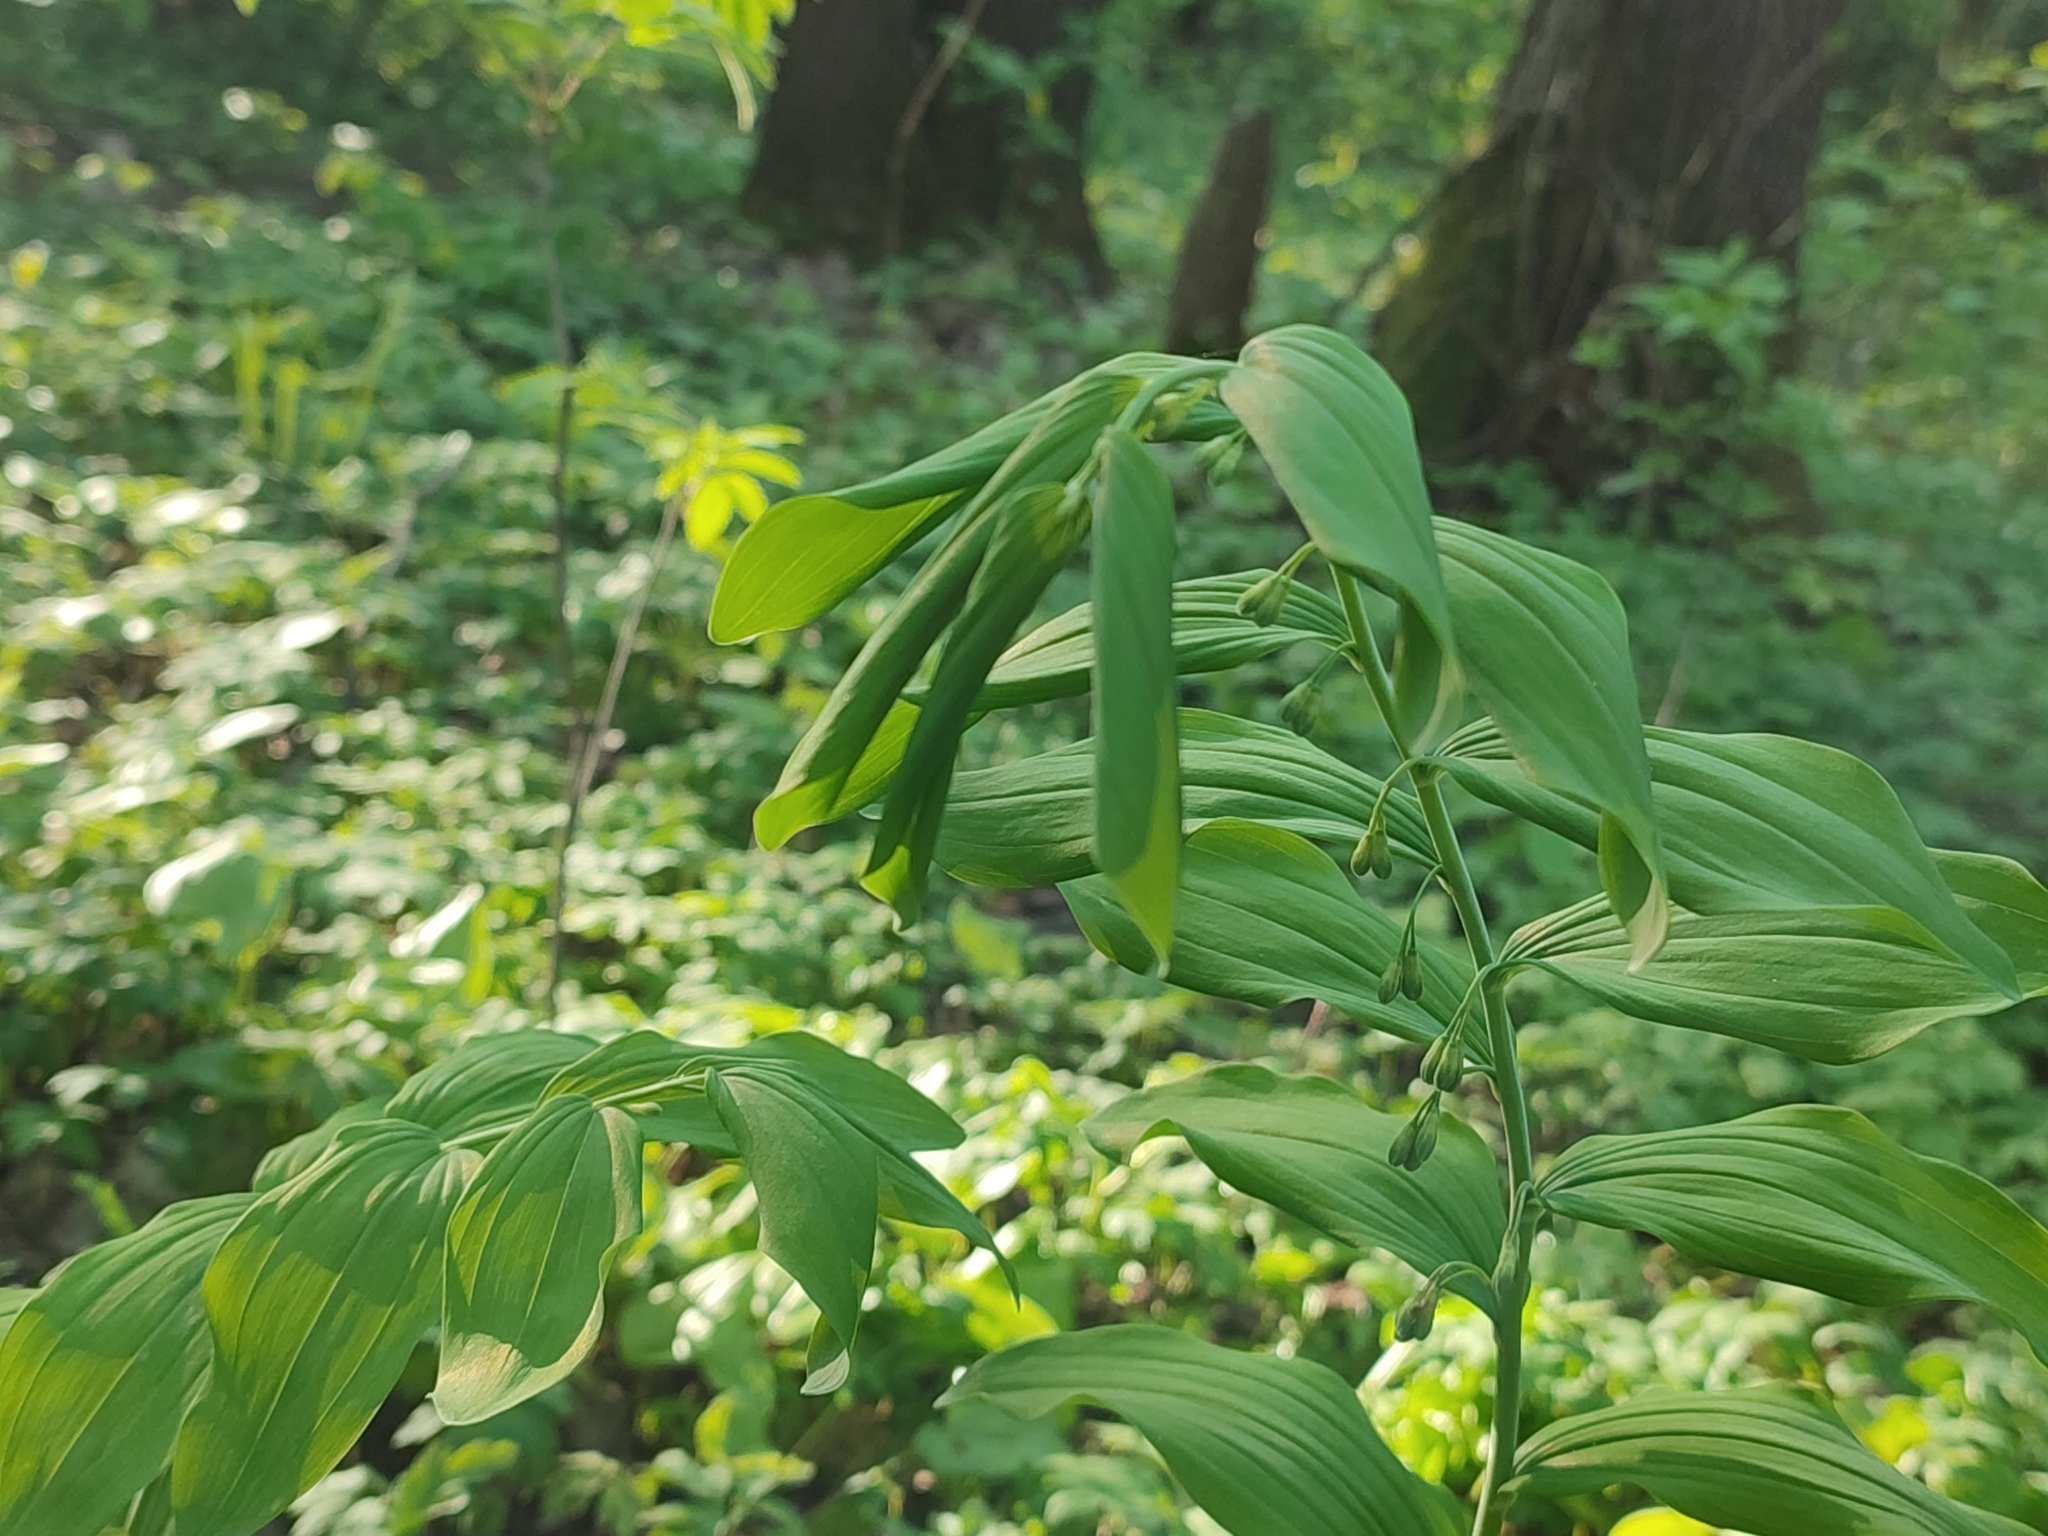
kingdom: Plantae
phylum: Tracheophyta
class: Liliopsida
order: Asparagales
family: Asparagaceae
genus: Polygonatum
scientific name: Polygonatum multiflorum
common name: Solomon's-seal
